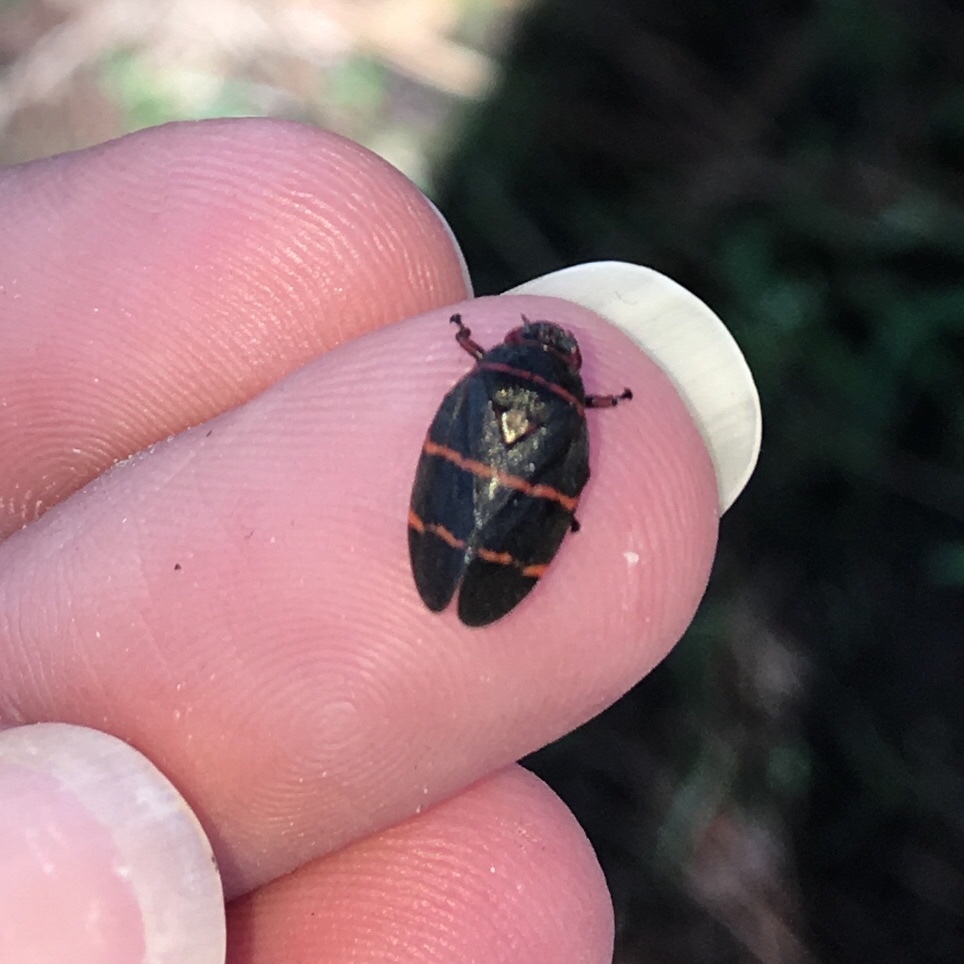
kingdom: Animalia
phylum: Arthropoda
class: Insecta
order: Hemiptera
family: Cercopidae
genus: Prosapia
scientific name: Prosapia bicincta
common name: Twolined spittlebug
